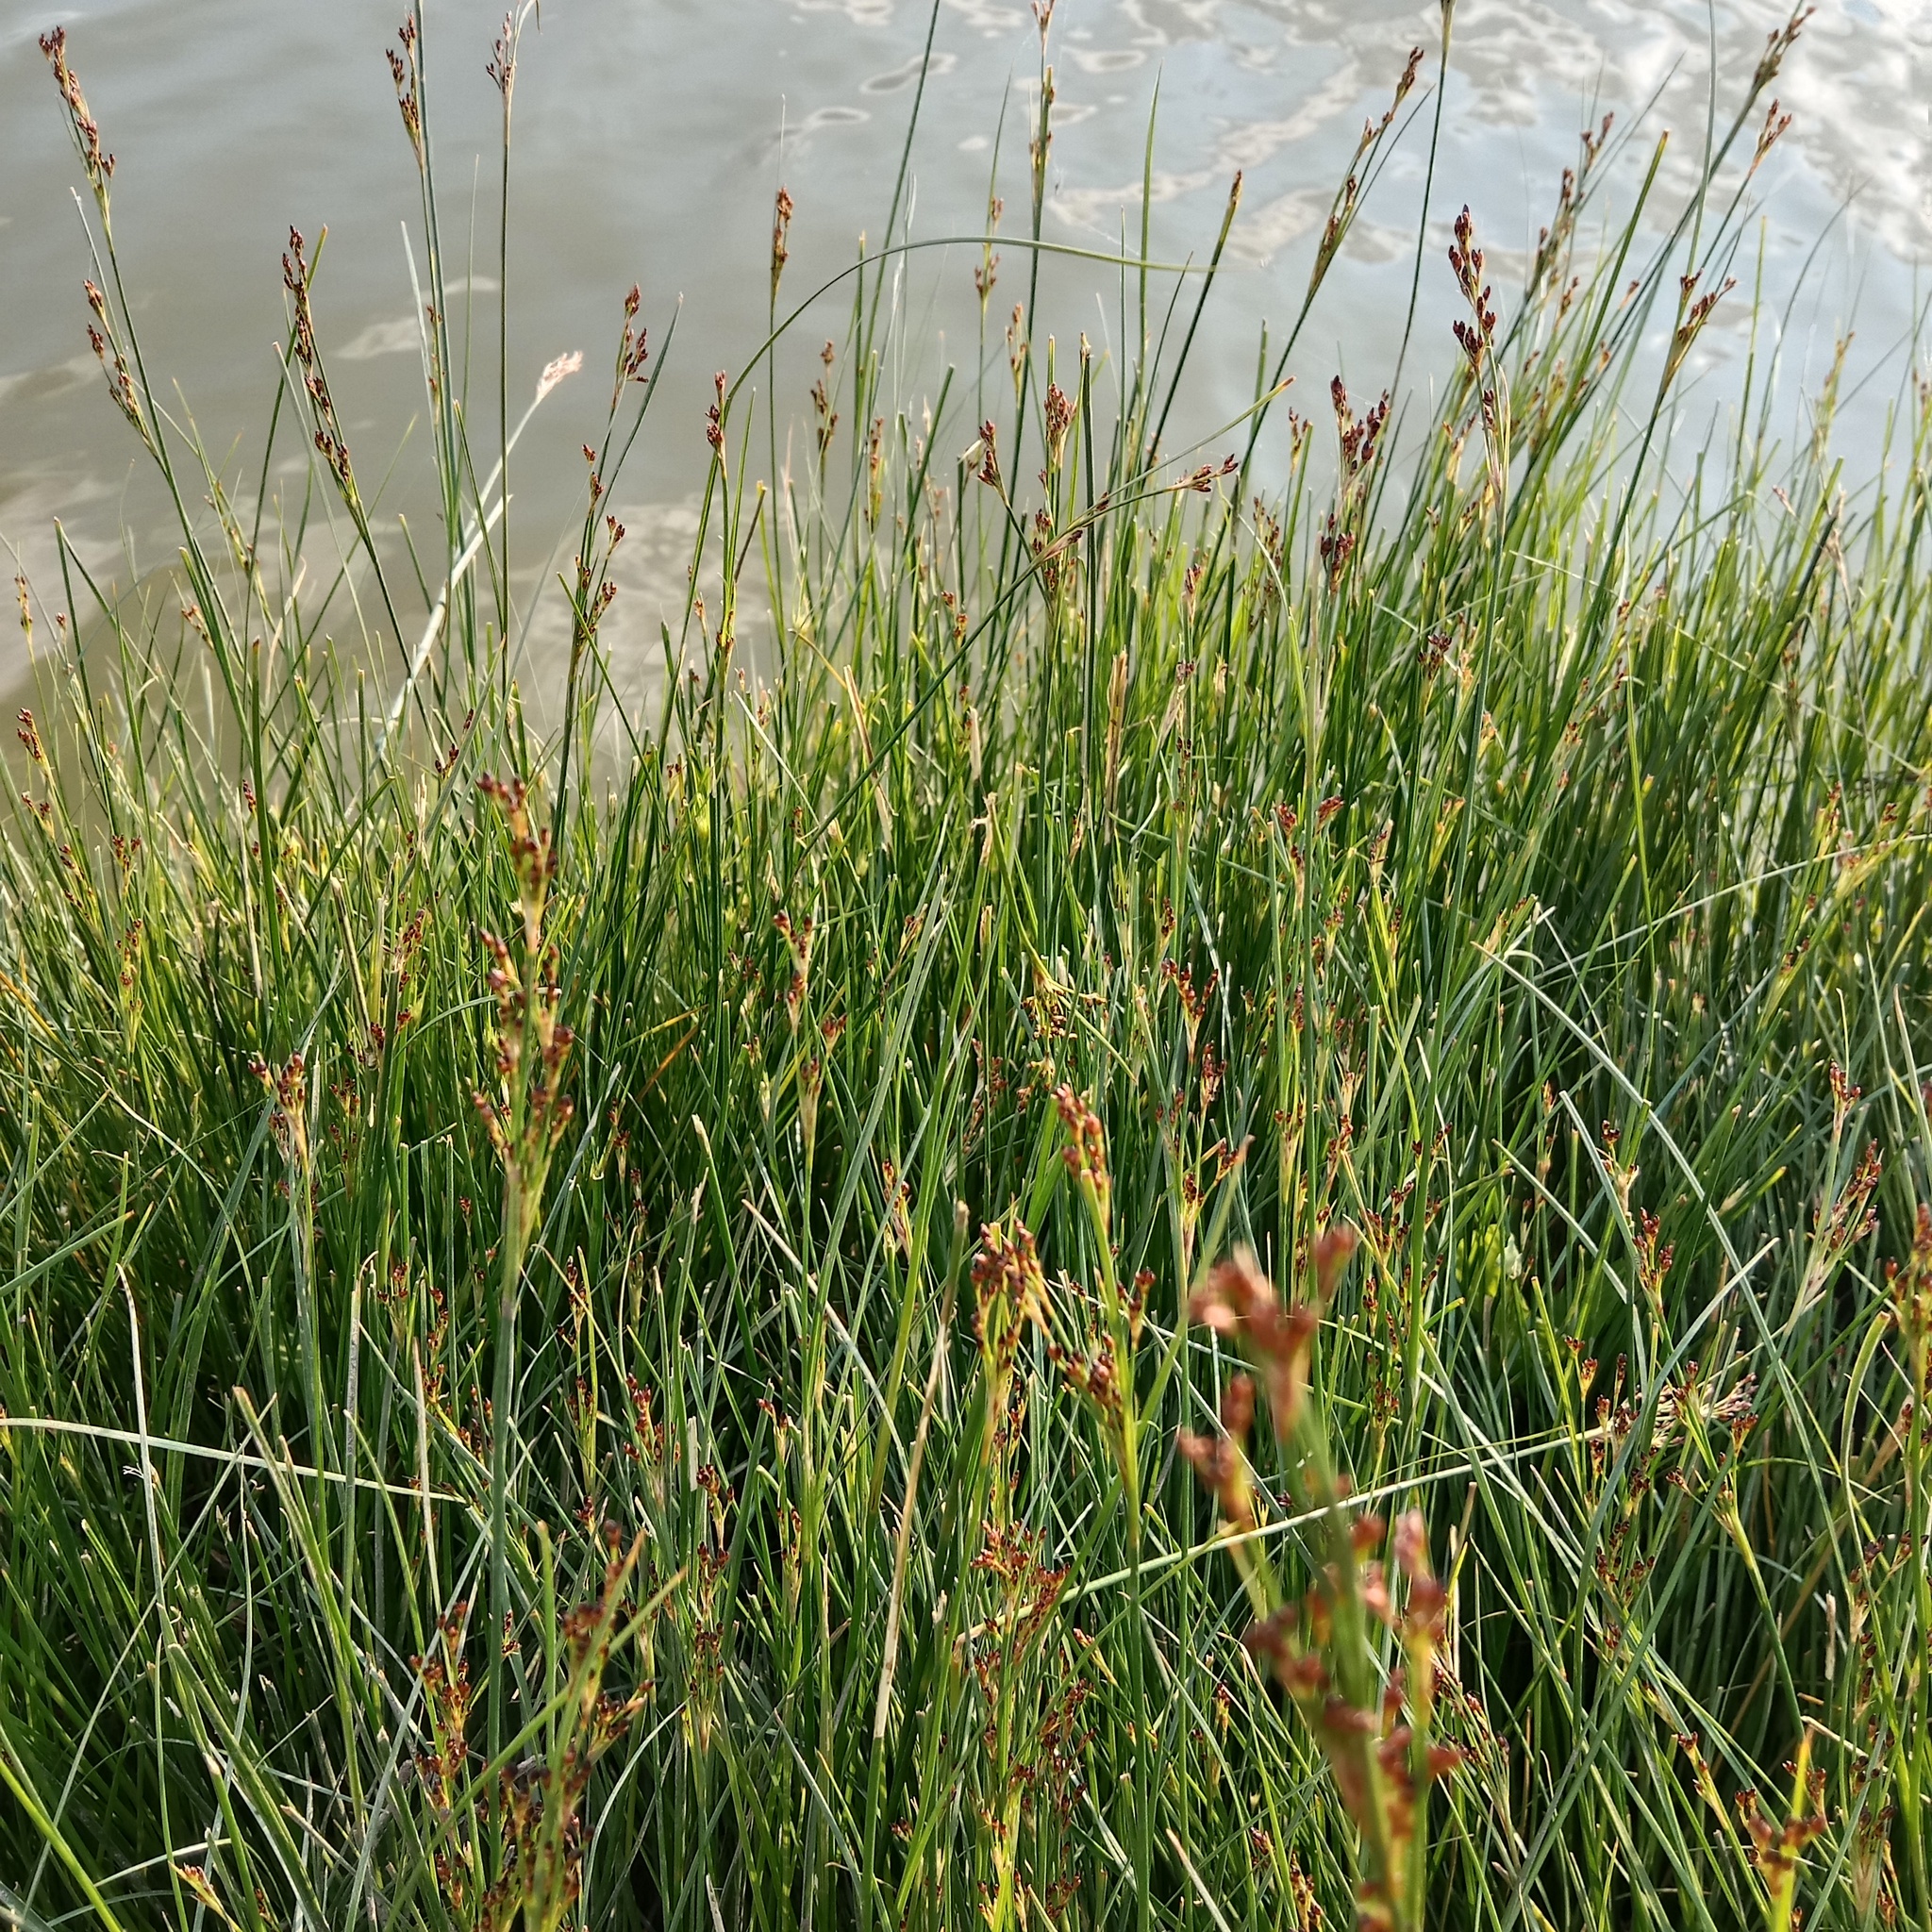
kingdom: Plantae
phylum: Tracheophyta
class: Liliopsida
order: Poales
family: Juncaceae
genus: Juncus
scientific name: Juncus gerardi
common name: Saltmarsh rush
